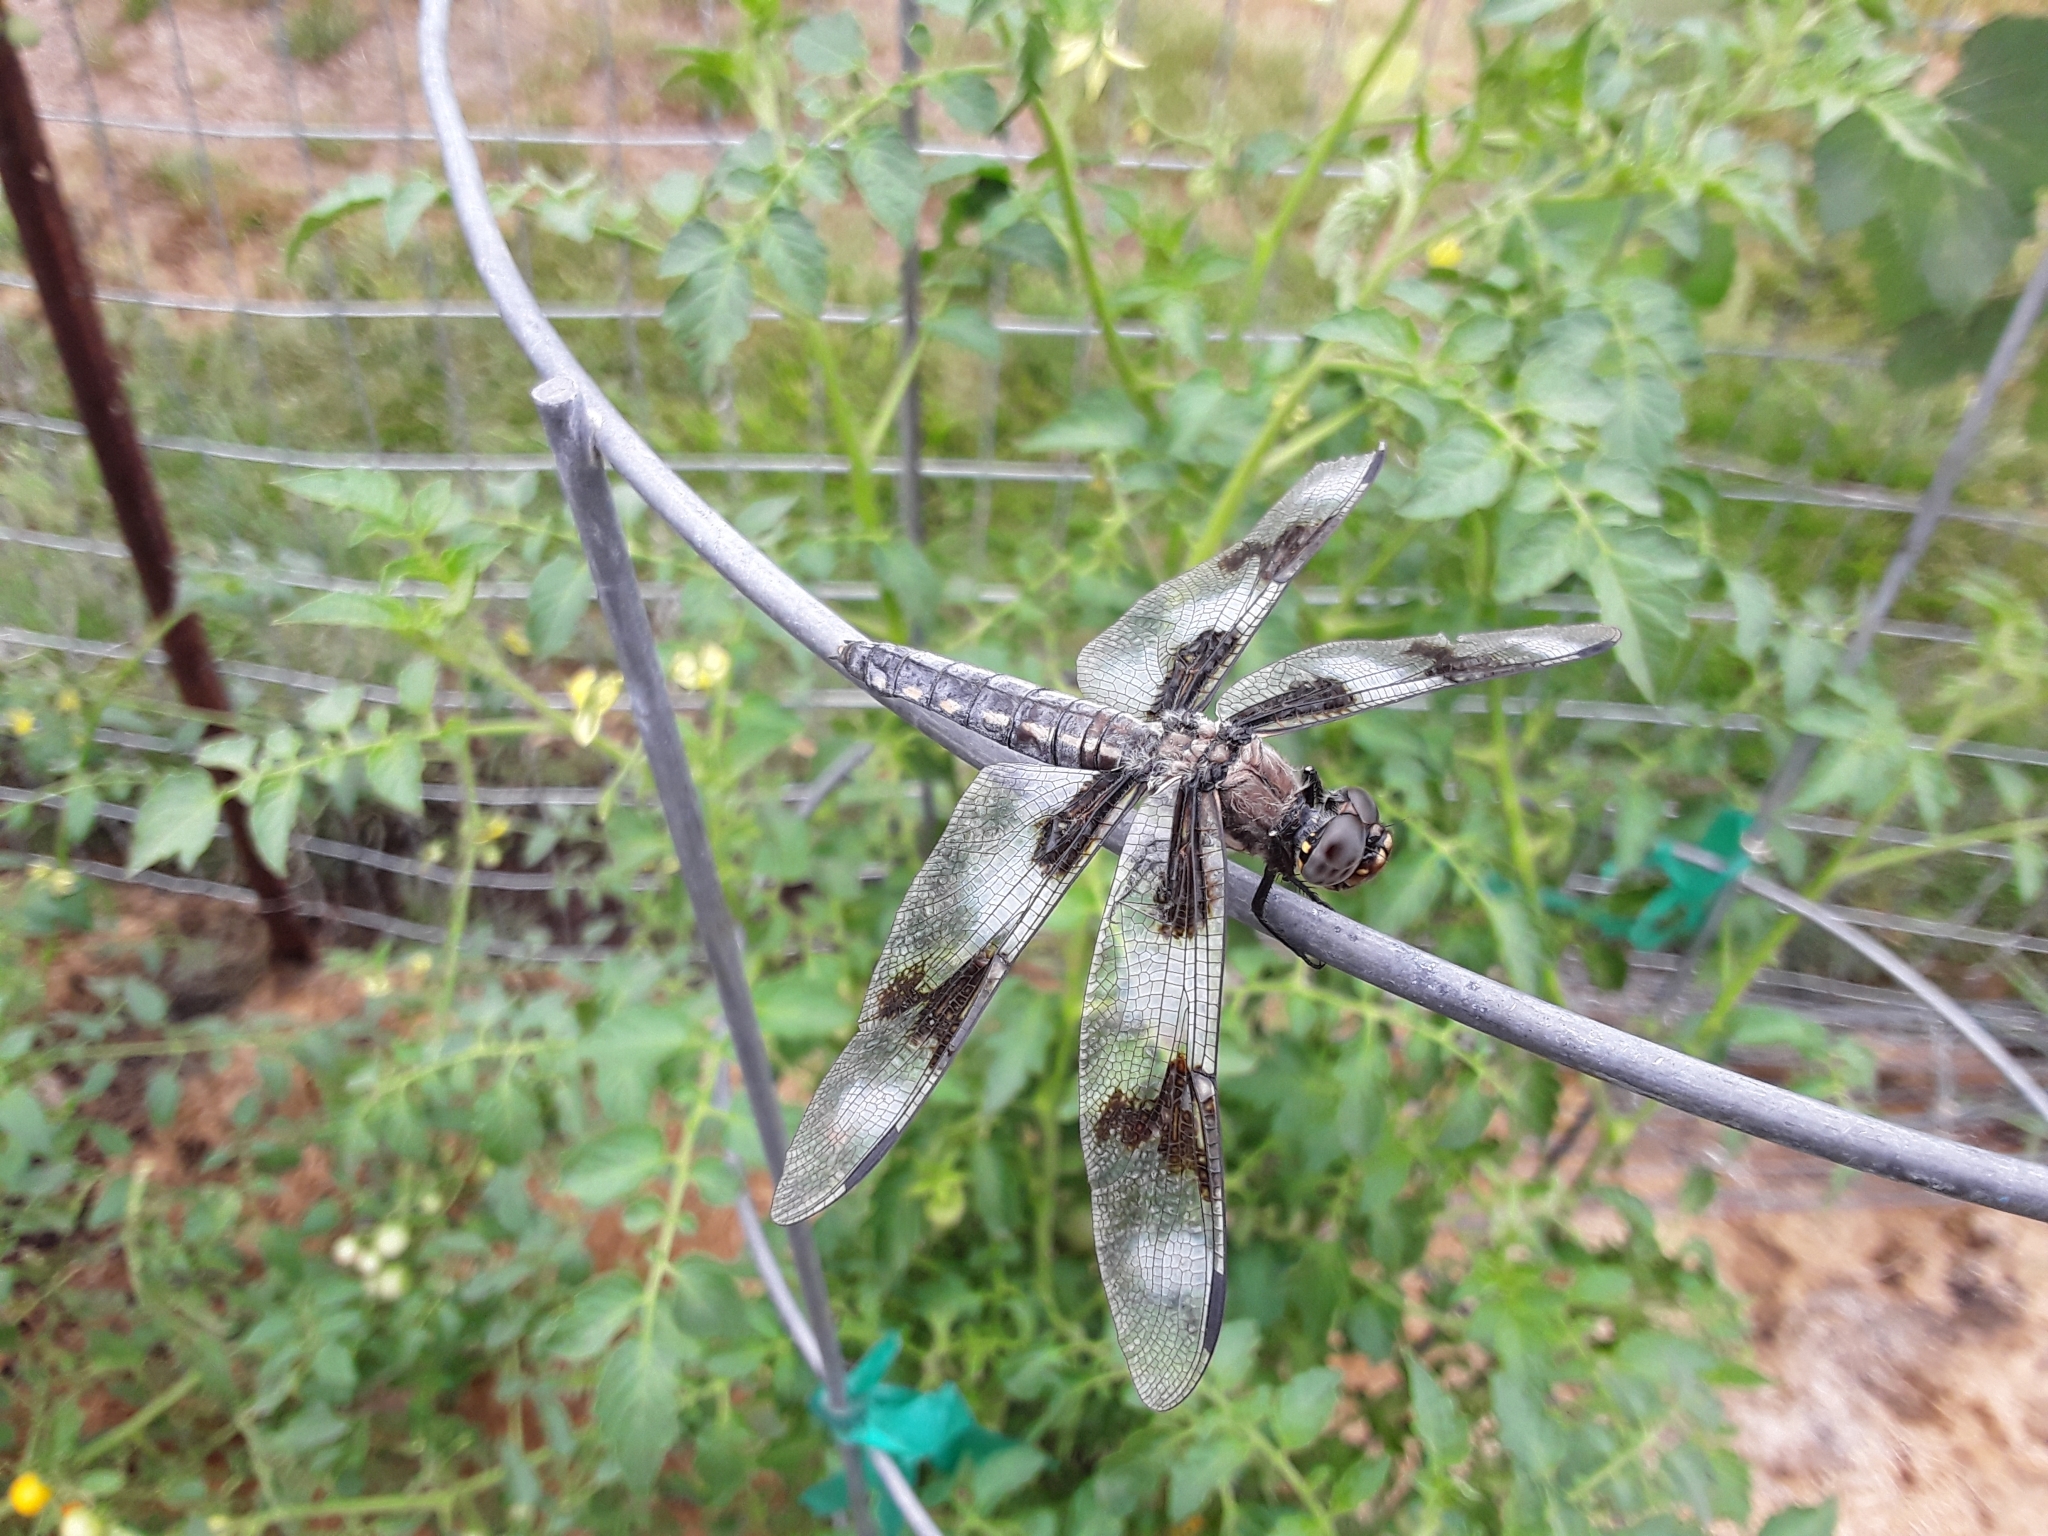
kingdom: Animalia
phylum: Arthropoda
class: Insecta
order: Odonata
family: Libellulidae
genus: Libellula
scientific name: Libellula forensis
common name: Eight-spotted skimmer
